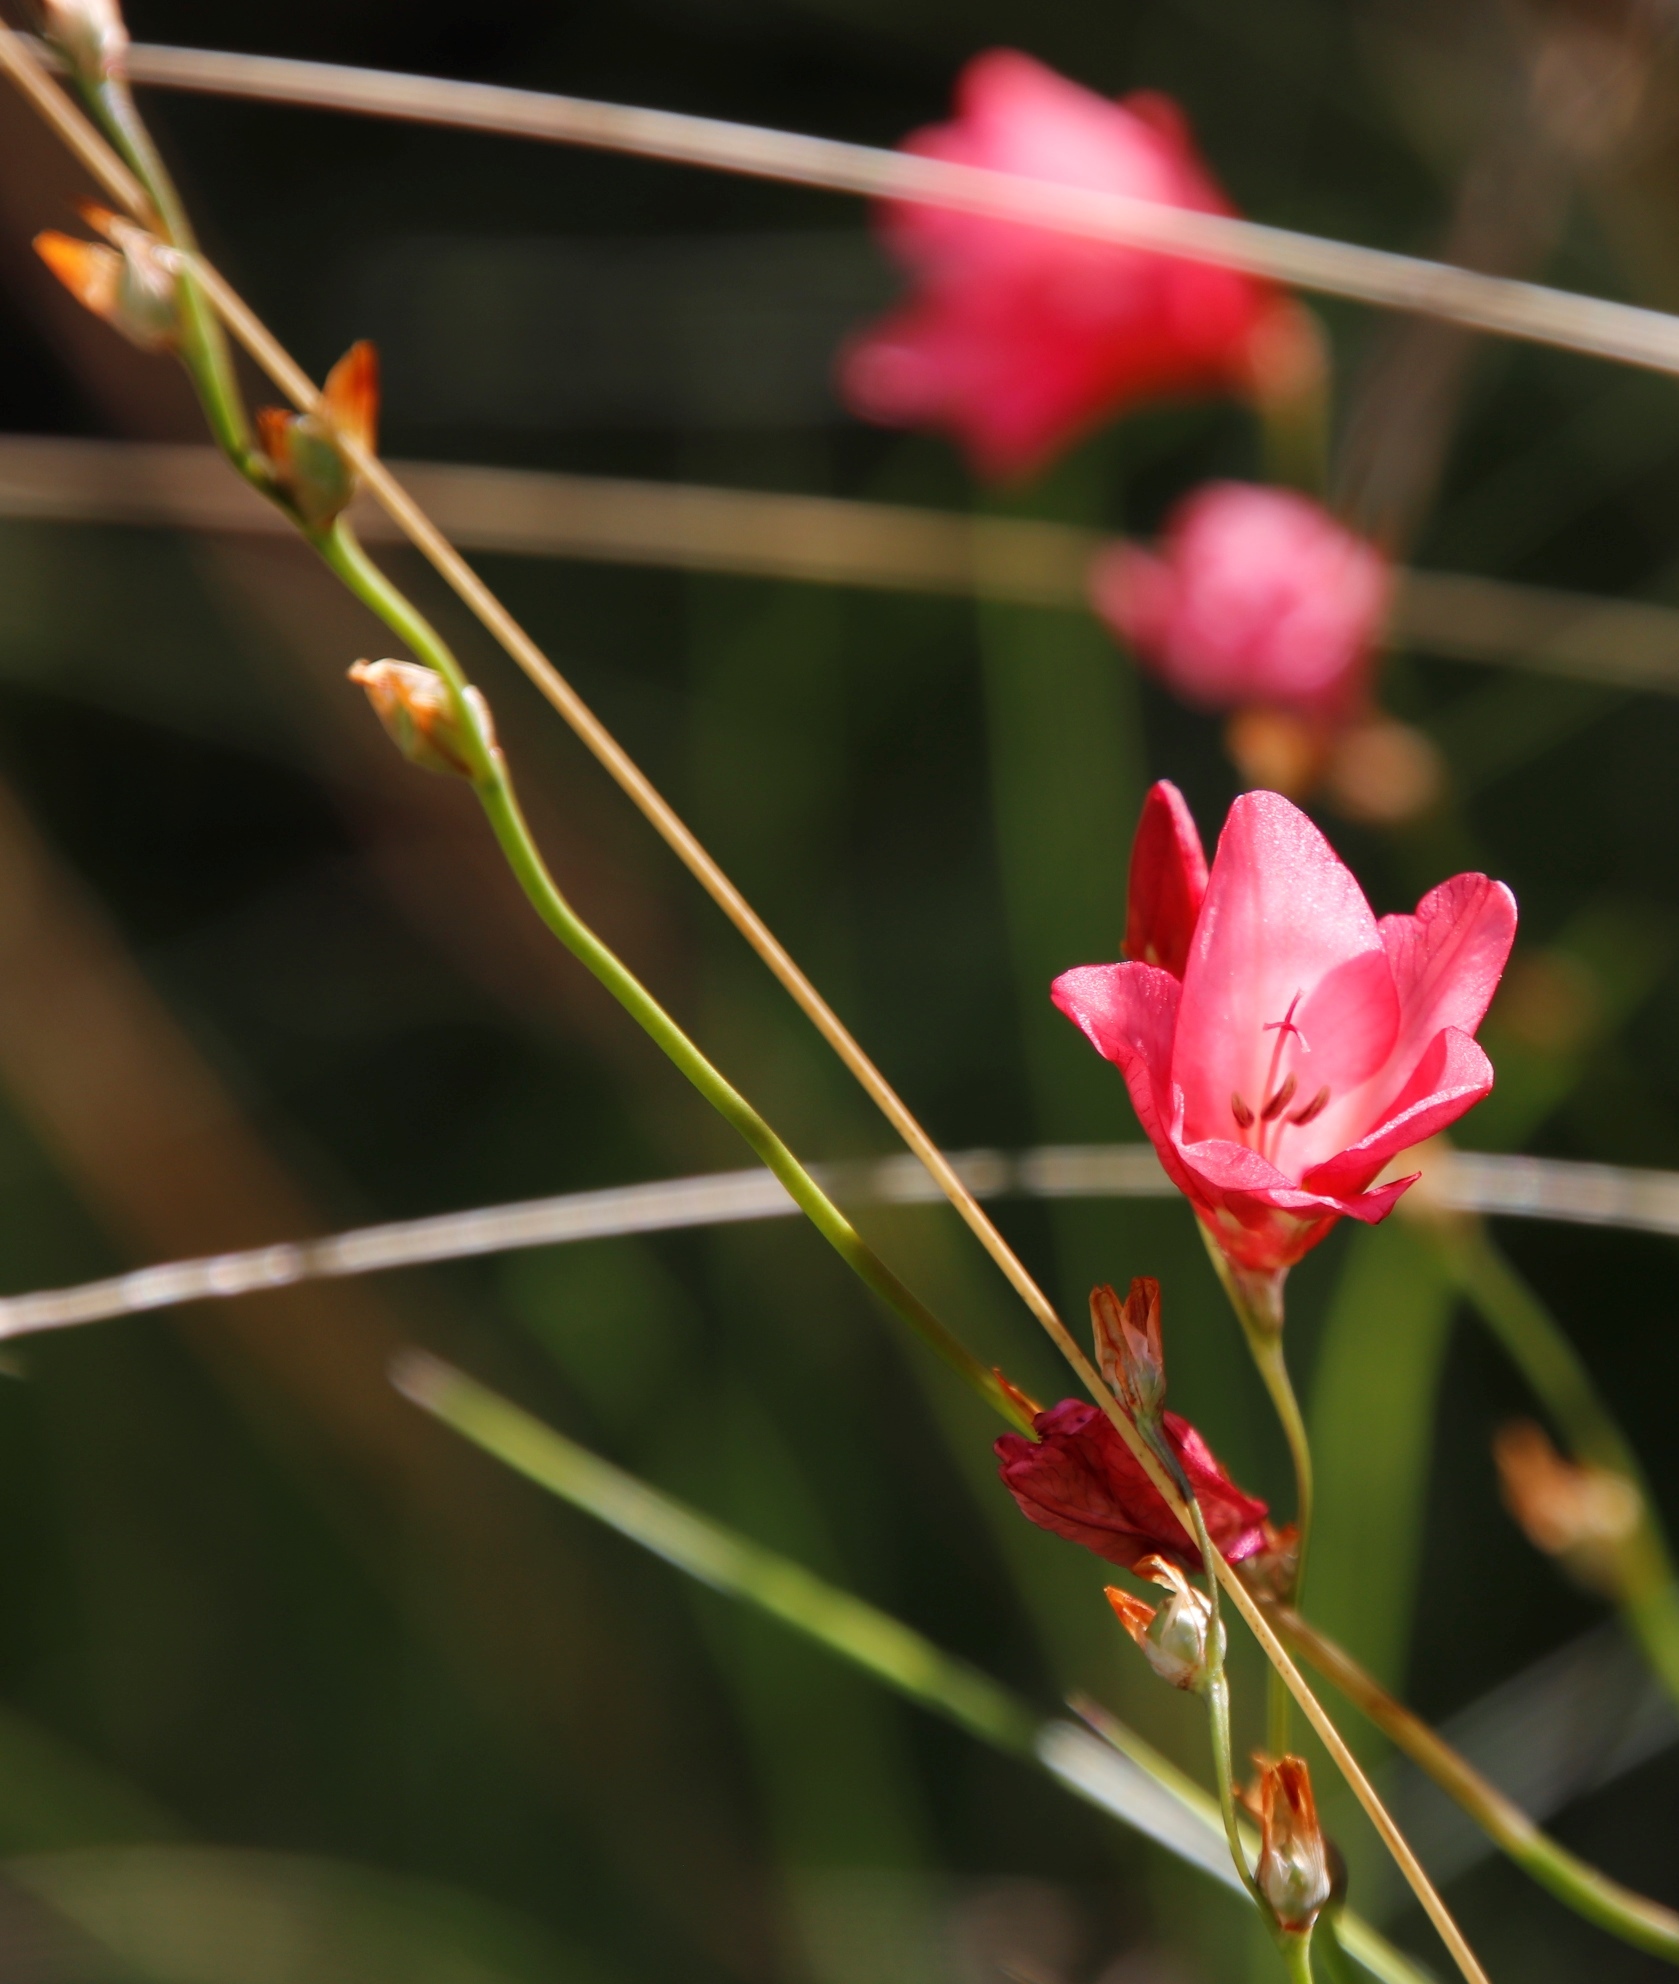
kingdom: Plantae
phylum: Tracheophyta
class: Liliopsida
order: Asparagales
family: Iridaceae
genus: Tritonia
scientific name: Tritonia drakensbergensis
